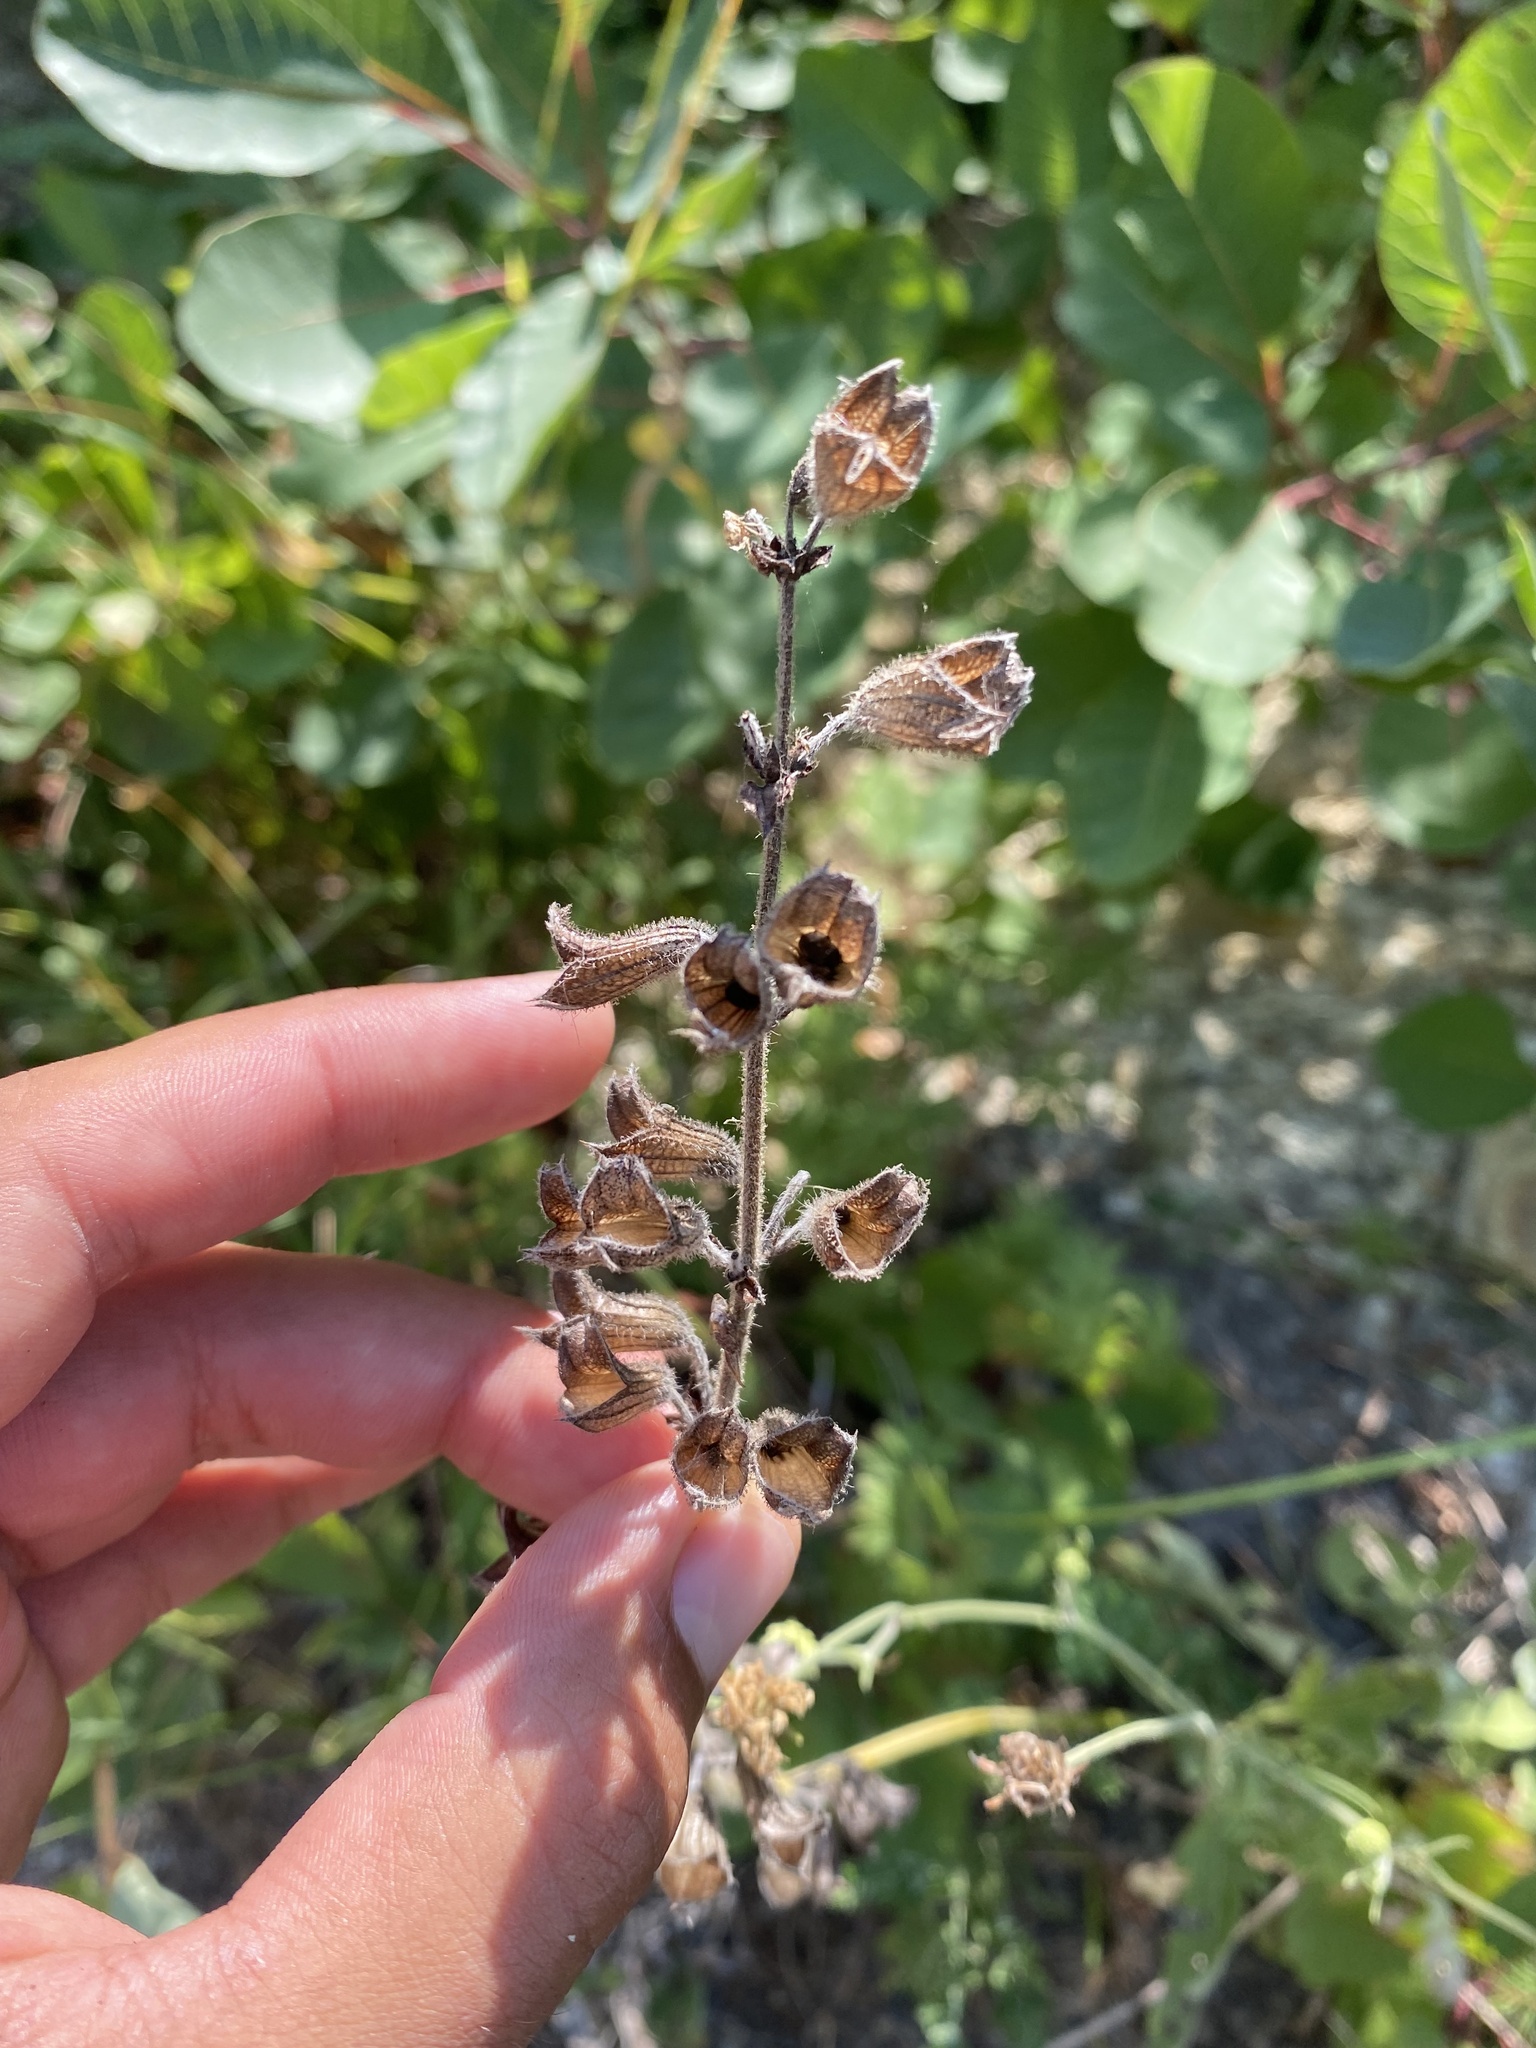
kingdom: Plantae
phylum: Tracheophyta
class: Magnoliopsida
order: Lamiales
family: Lamiaceae
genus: Salvia
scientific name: Salvia ringens
